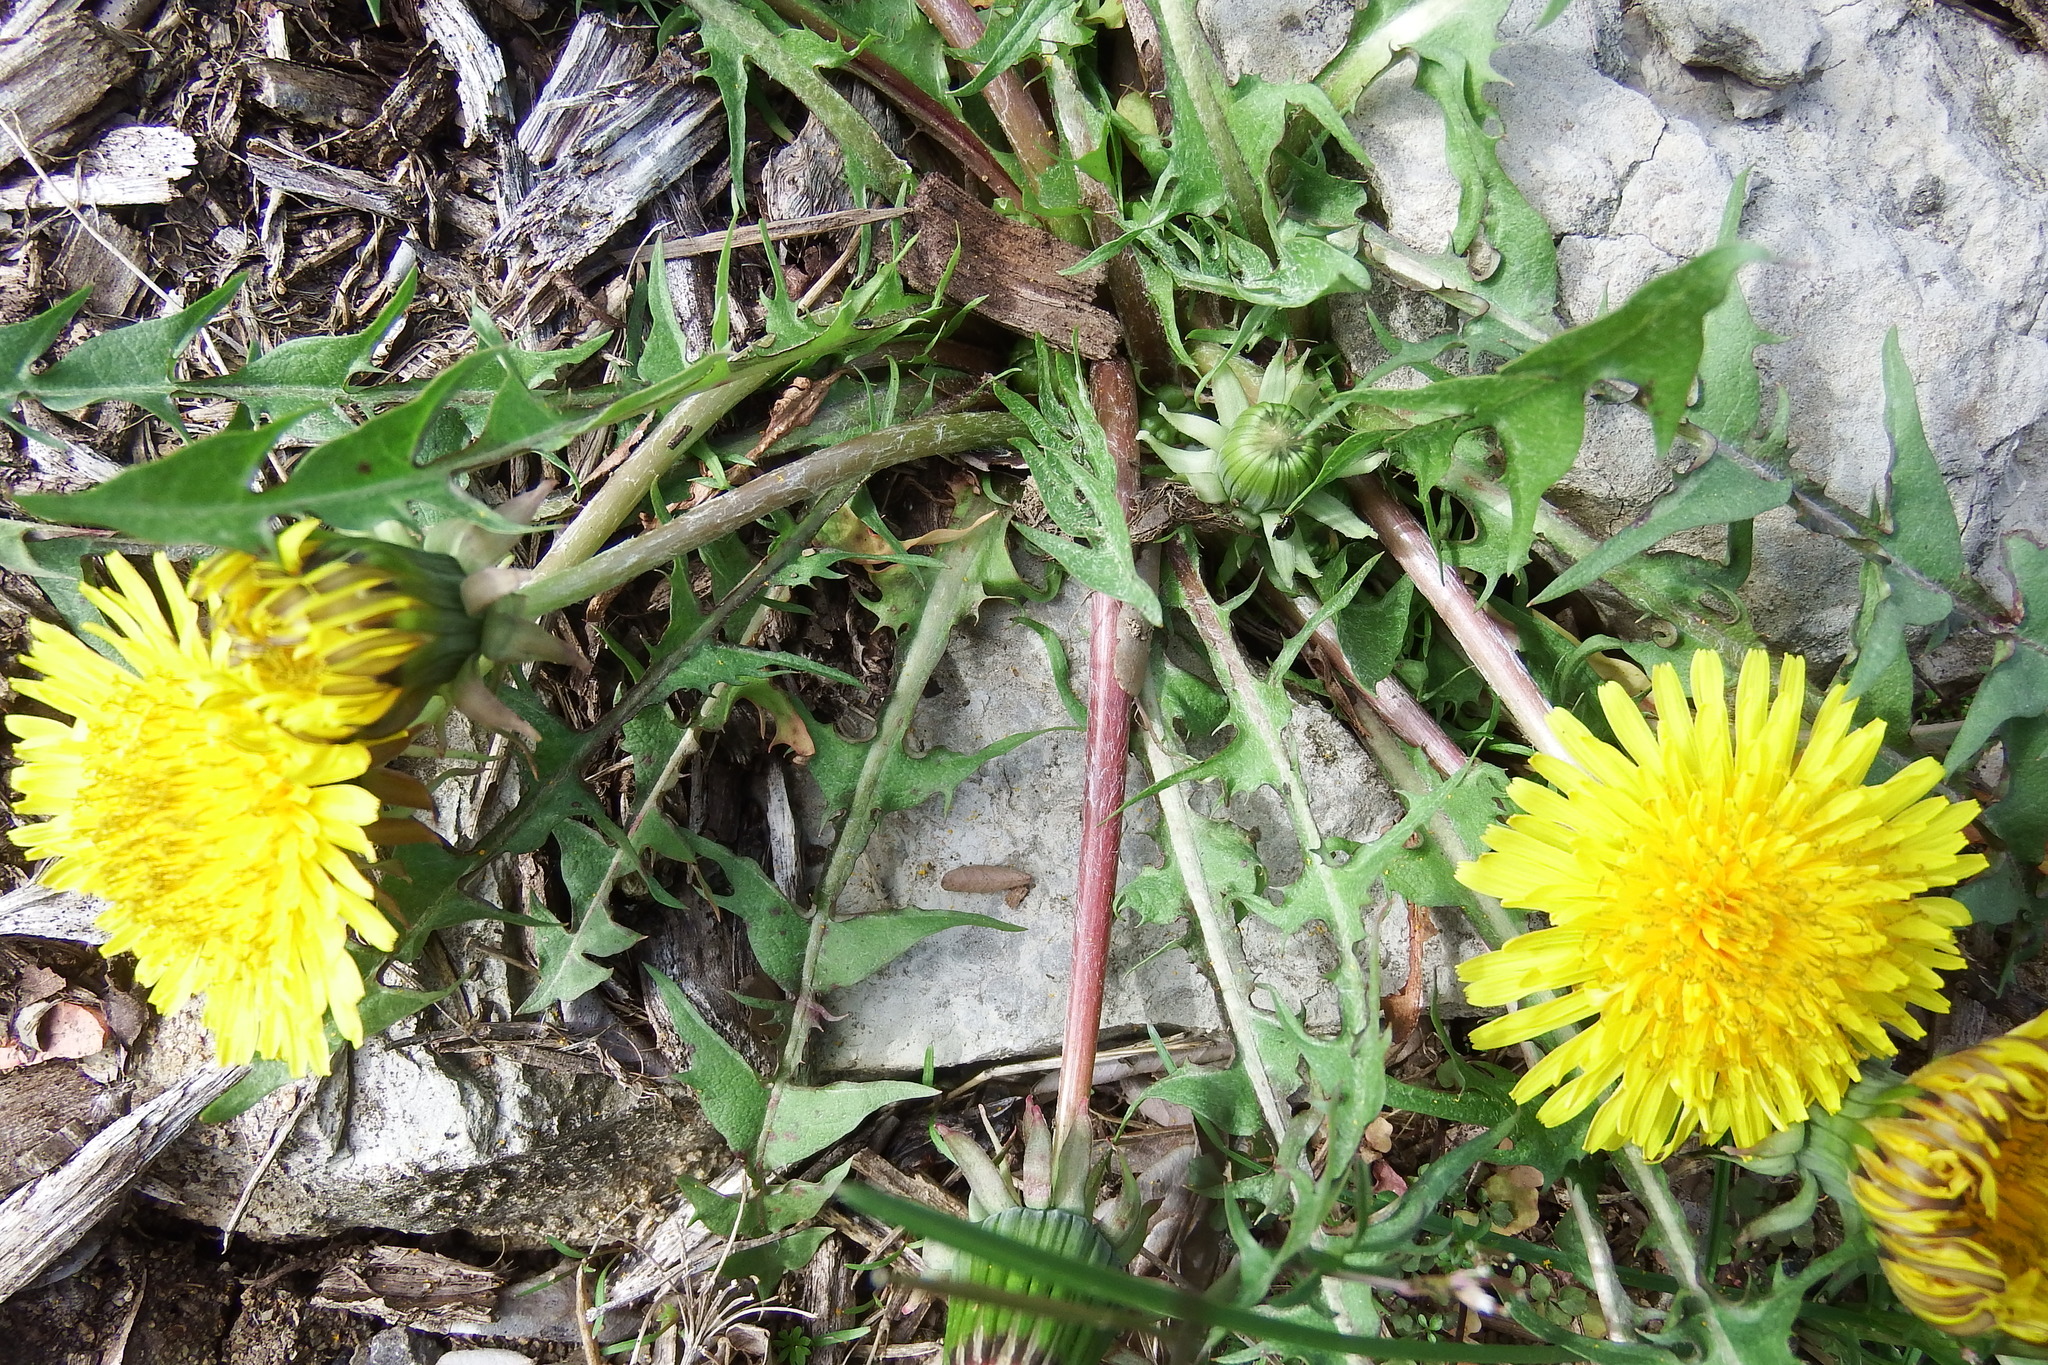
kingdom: Plantae
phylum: Tracheophyta
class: Magnoliopsida
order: Asterales
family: Asteraceae
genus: Taraxacum
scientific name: Taraxacum erythrospermum
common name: Rock dandelion
